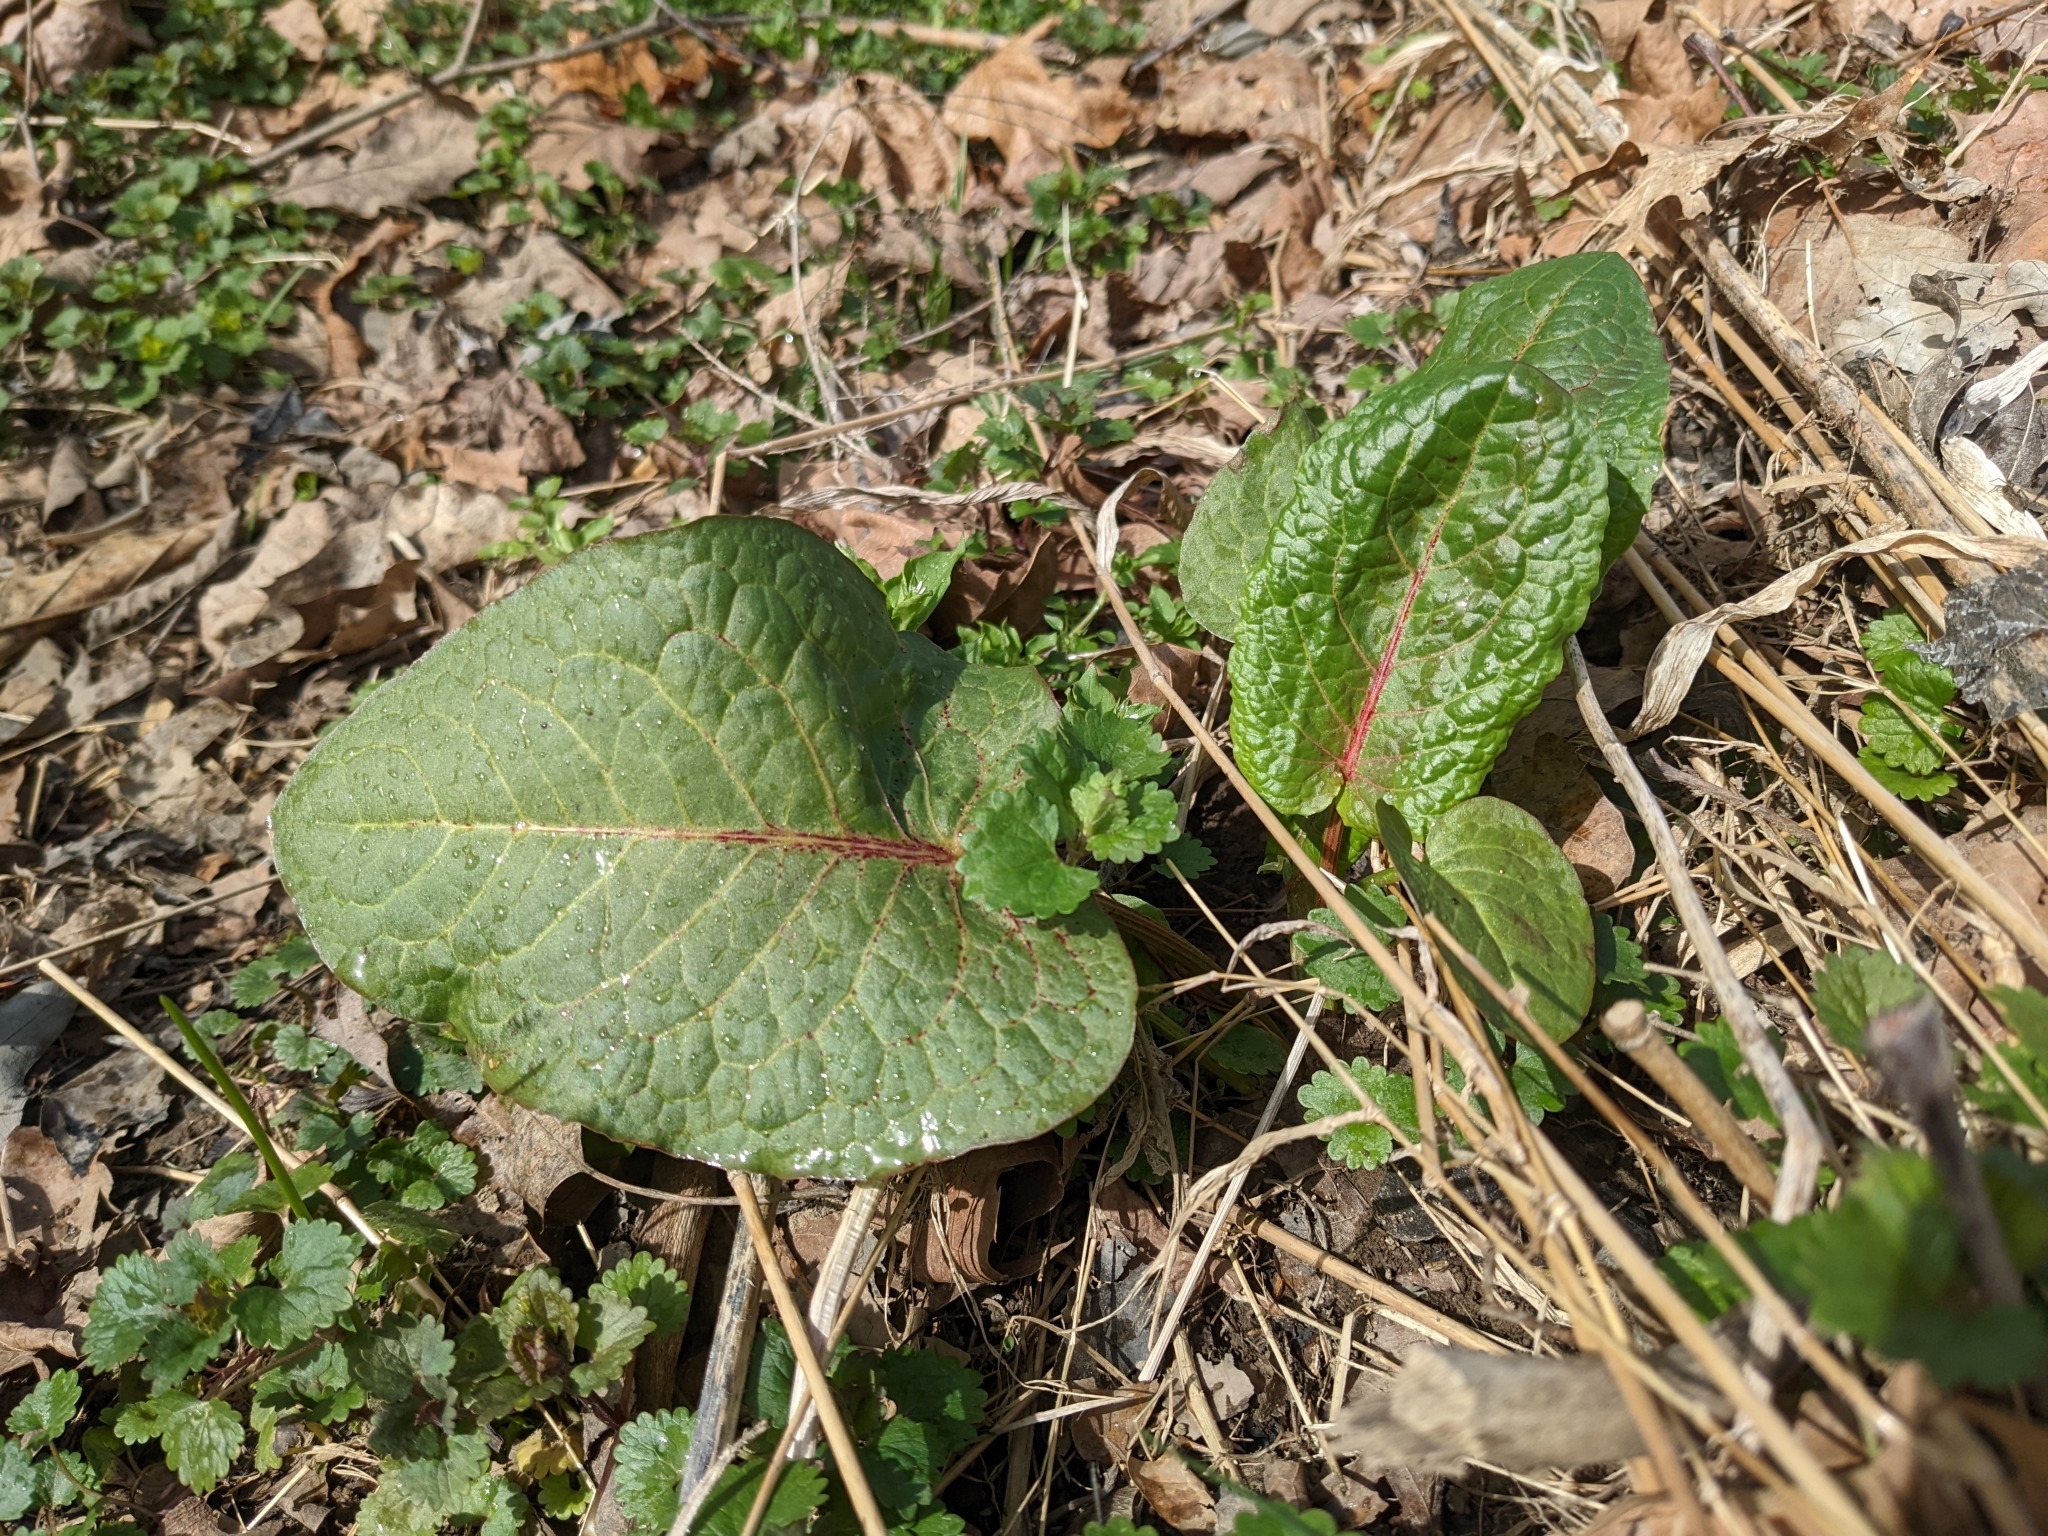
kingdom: Plantae
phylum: Tracheophyta
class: Magnoliopsida
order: Caryophyllales
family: Polygonaceae
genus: Rumex
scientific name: Rumex obtusifolius
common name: Bitter dock
